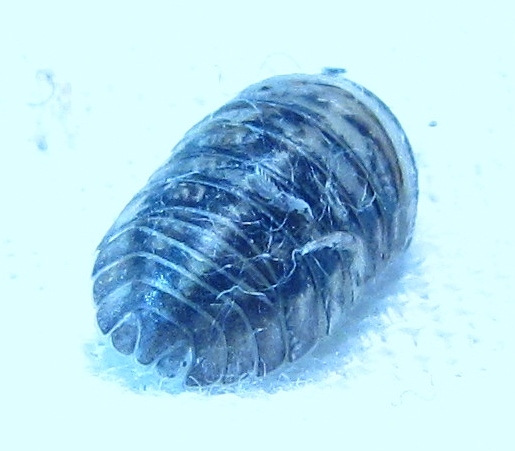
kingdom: Animalia
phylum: Arthropoda
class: Malacostraca
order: Isopoda
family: Armadillidiidae
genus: Armadillidium
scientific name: Armadillidium nasatum
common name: Isopod
